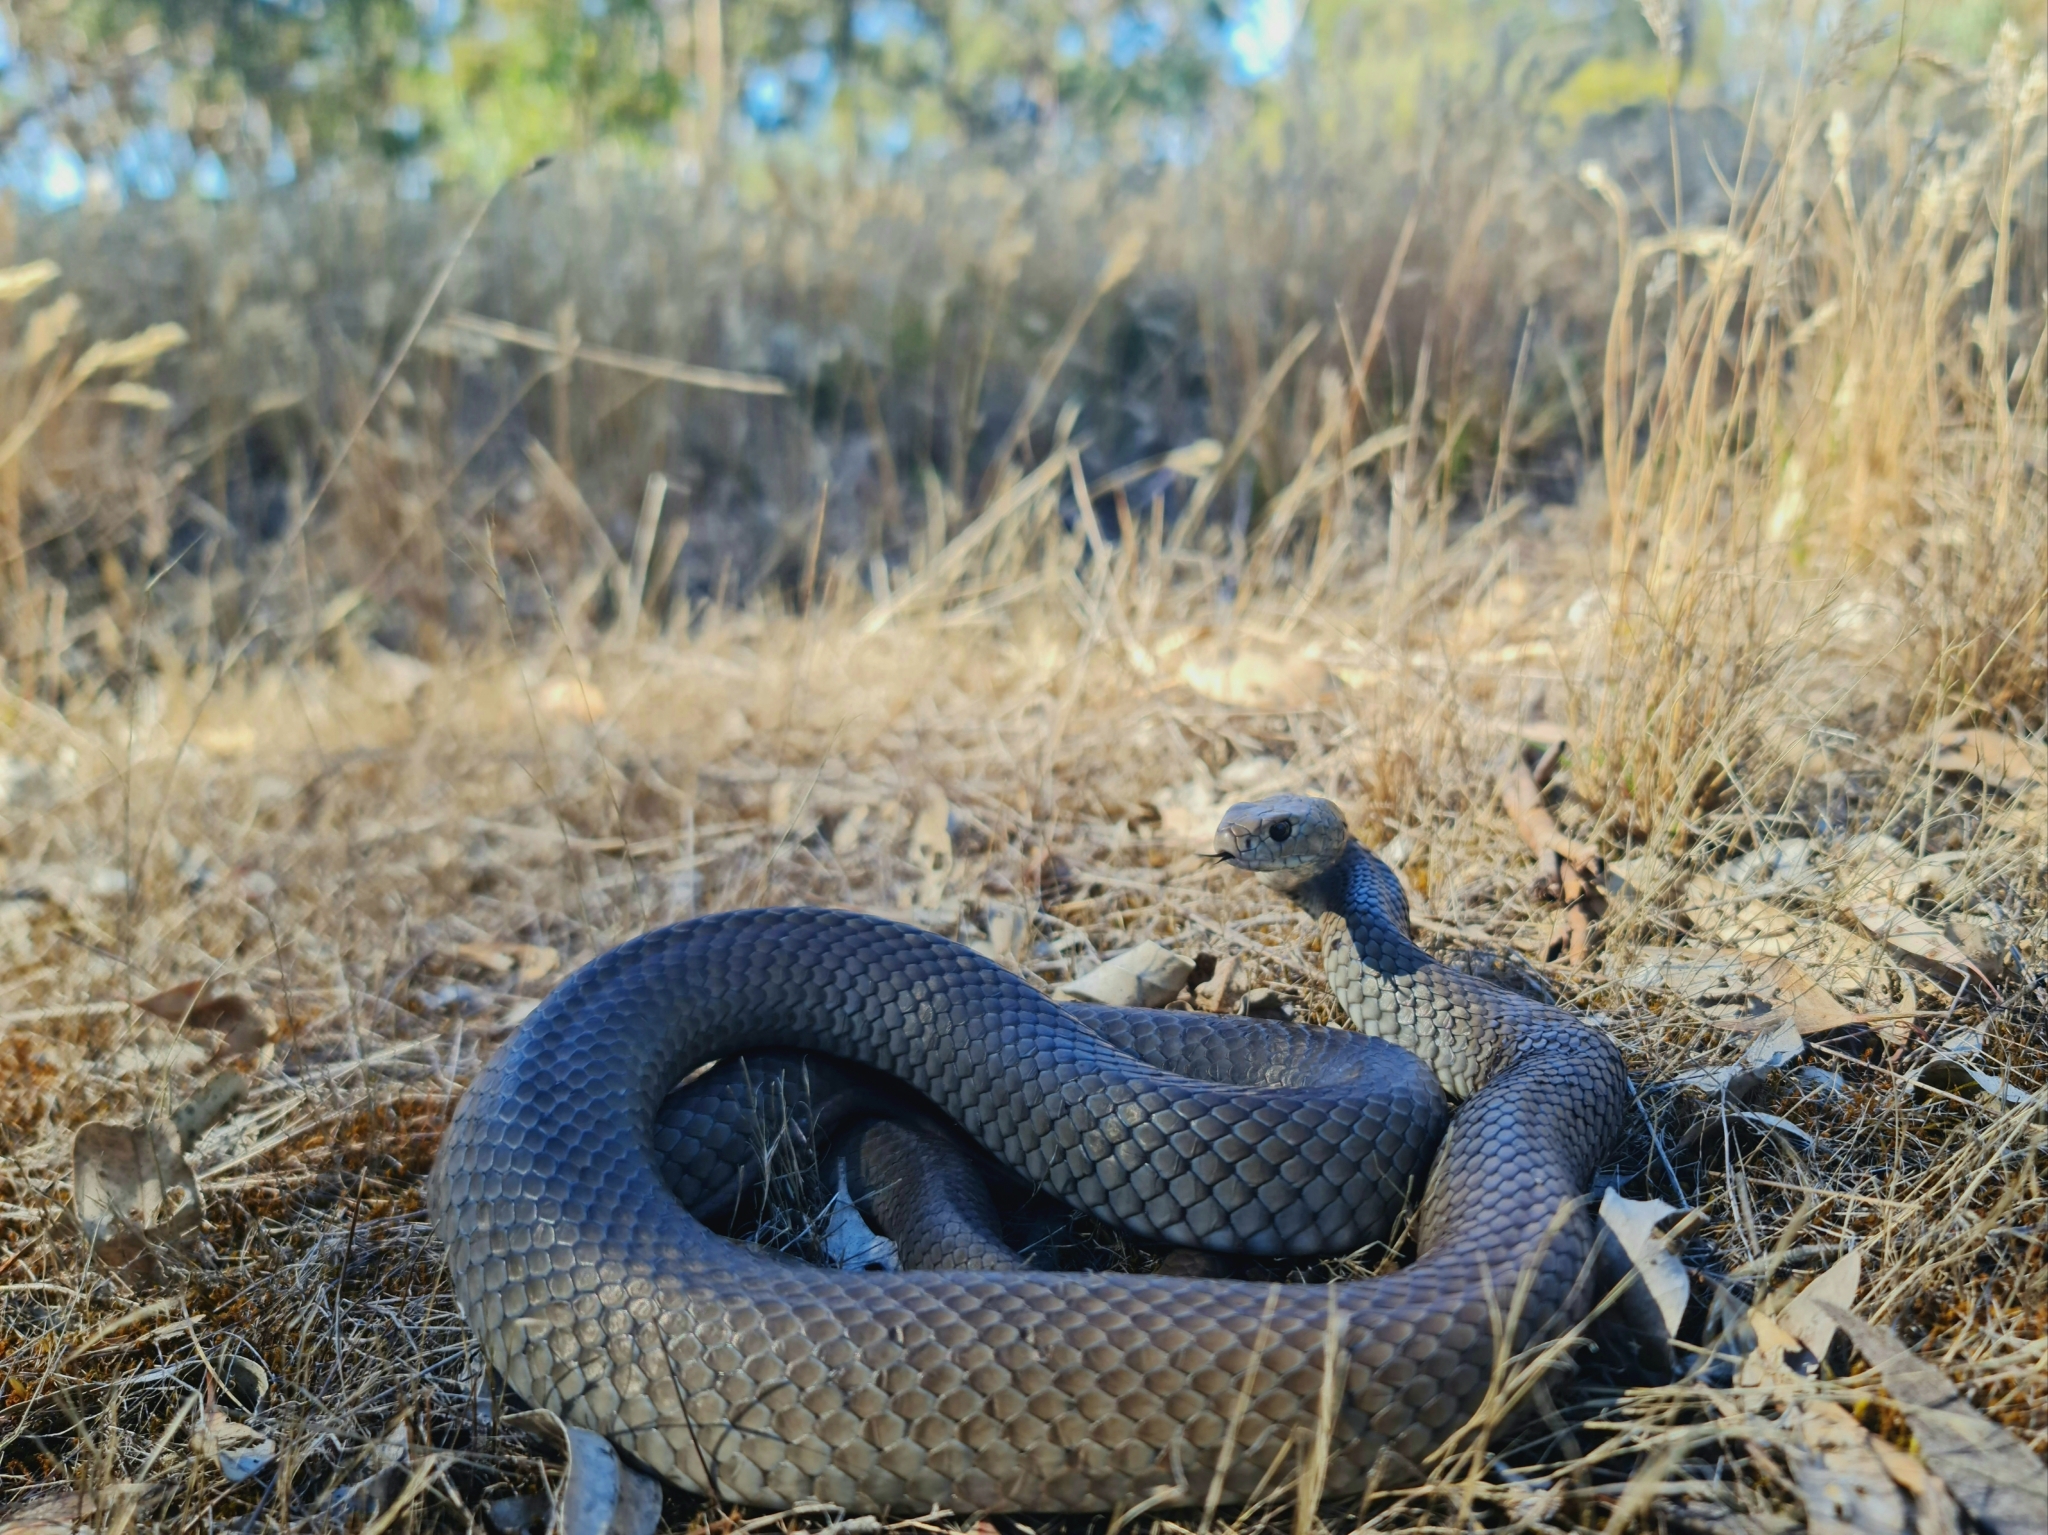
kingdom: Animalia
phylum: Chordata
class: Squamata
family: Elapidae
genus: Pseudonaja
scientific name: Pseudonaja textilis
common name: Eastern brown snake
